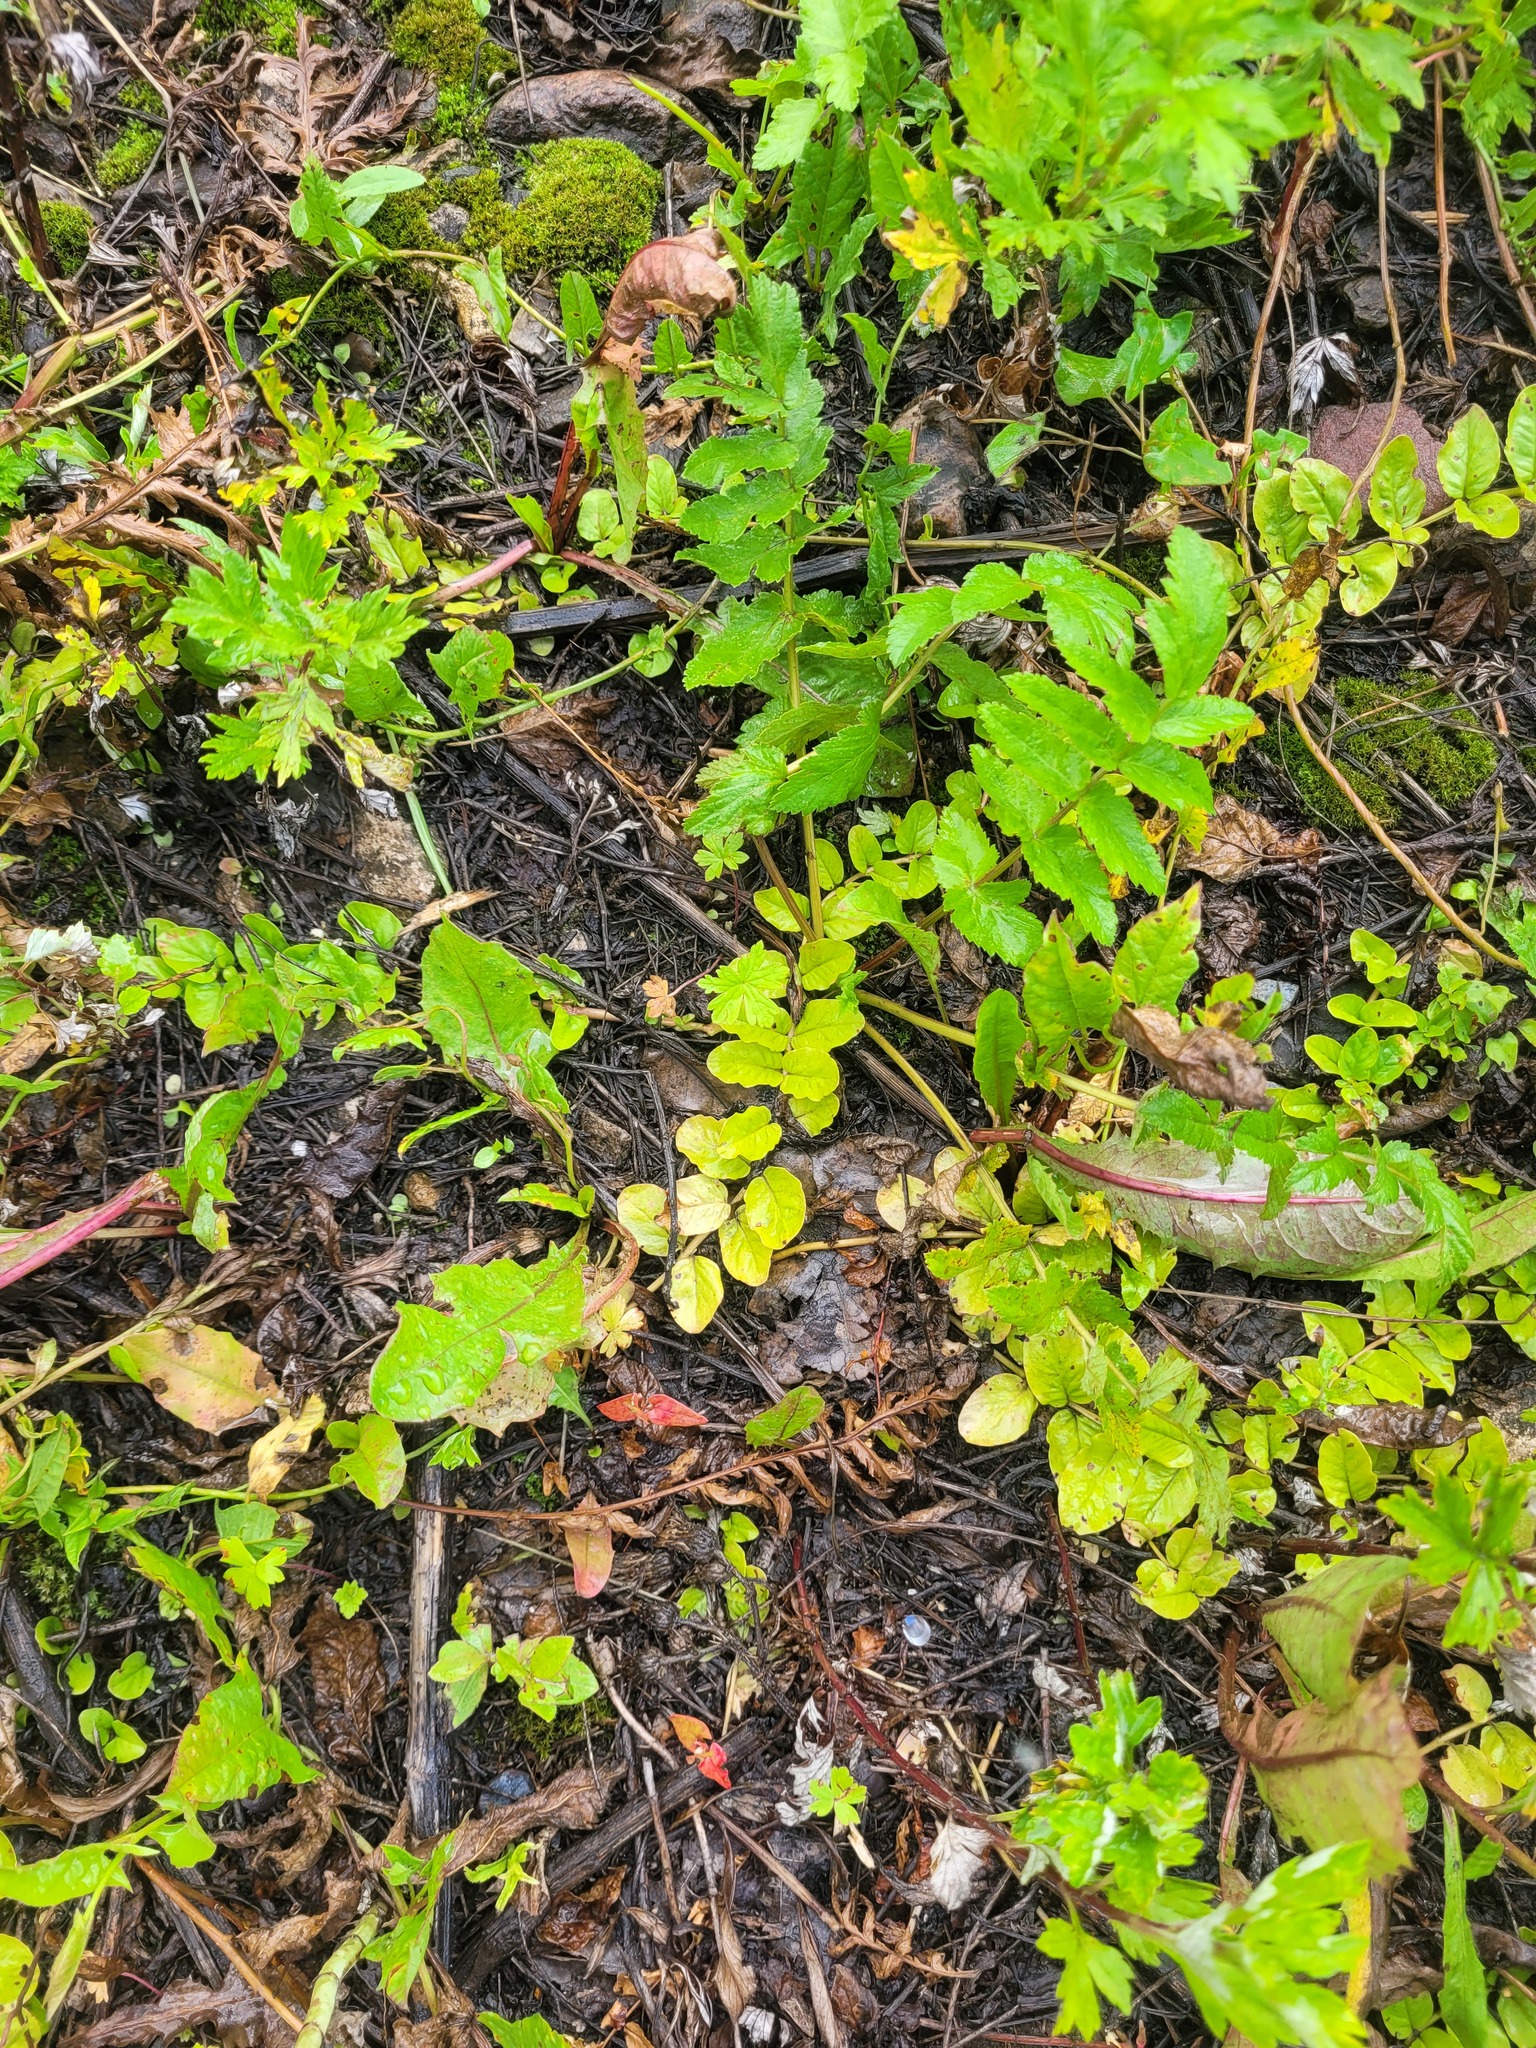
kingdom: Plantae
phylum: Tracheophyta
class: Magnoliopsida
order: Ericales
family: Primulaceae
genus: Lysimachia
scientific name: Lysimachia nummularia
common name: Moneywort
